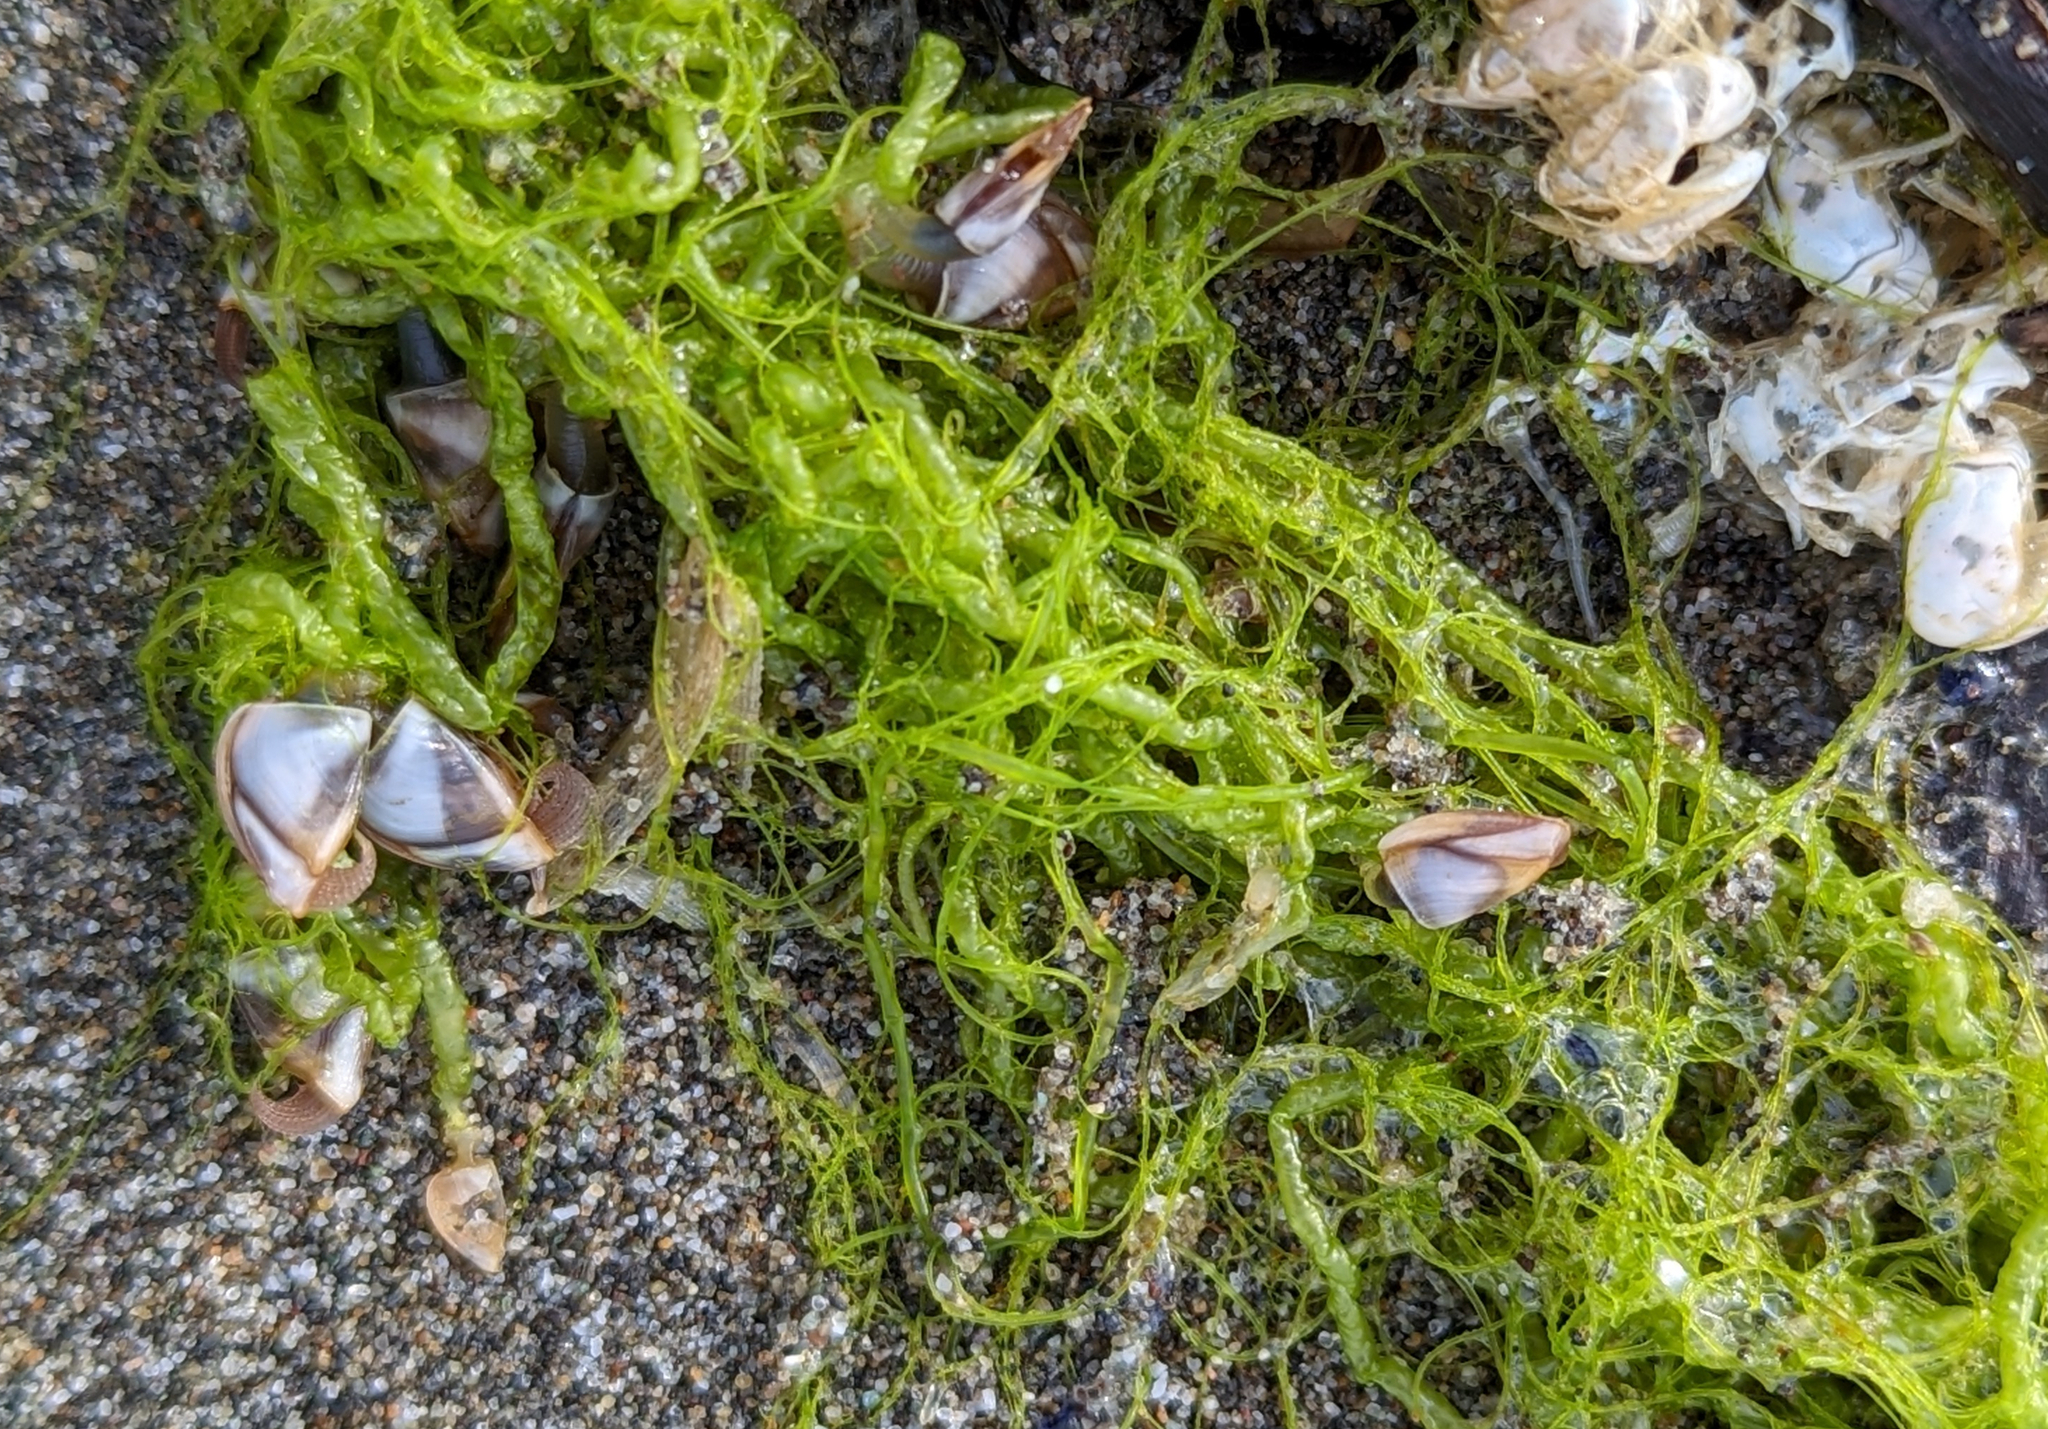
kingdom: Animalia
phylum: Arthropoda
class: Maxillopoda
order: Pedunculata
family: Lepadidae
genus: Lepas
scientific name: Lepas pacifica
